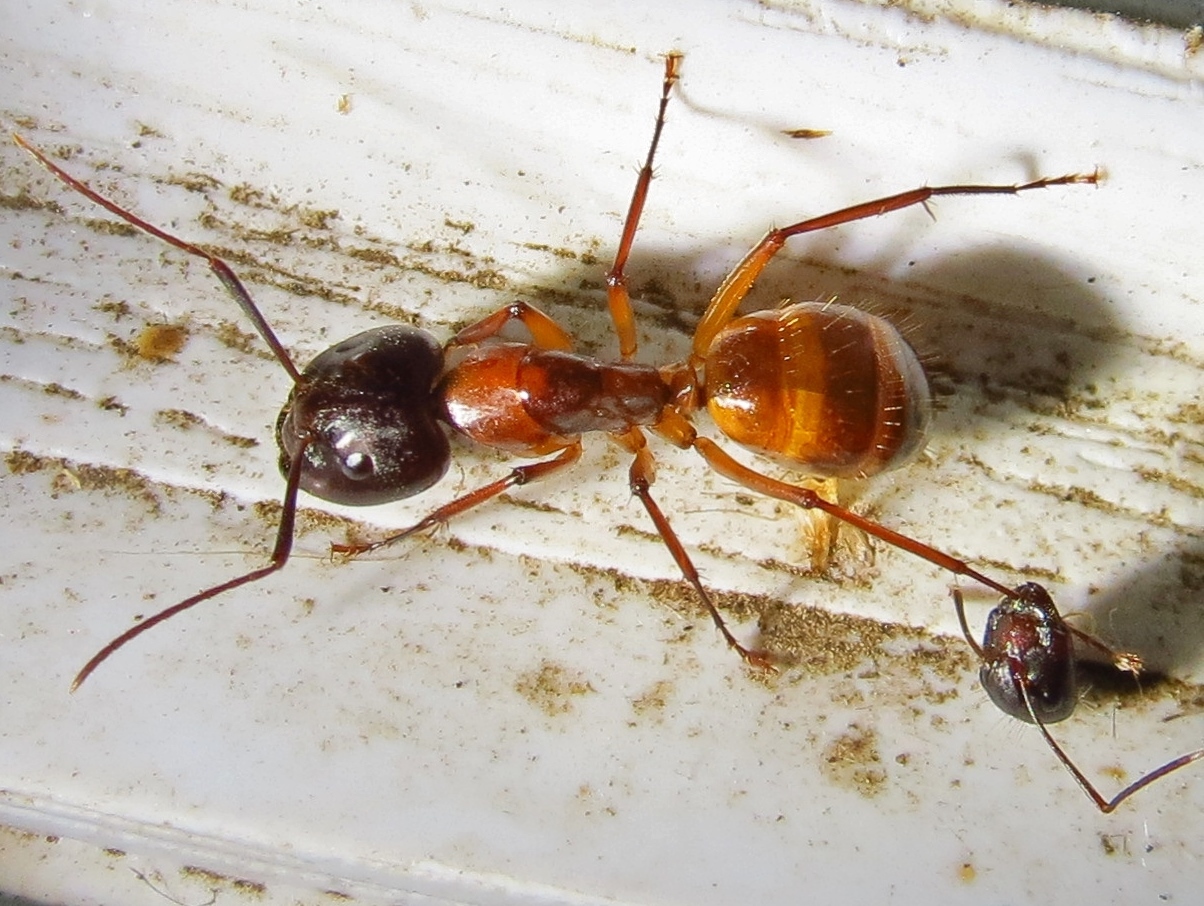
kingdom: Animalia
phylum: Arthropoda
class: Insecta
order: Hymenoptera
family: Formicidae
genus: Camponotus
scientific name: Camponotus sansabeanus
